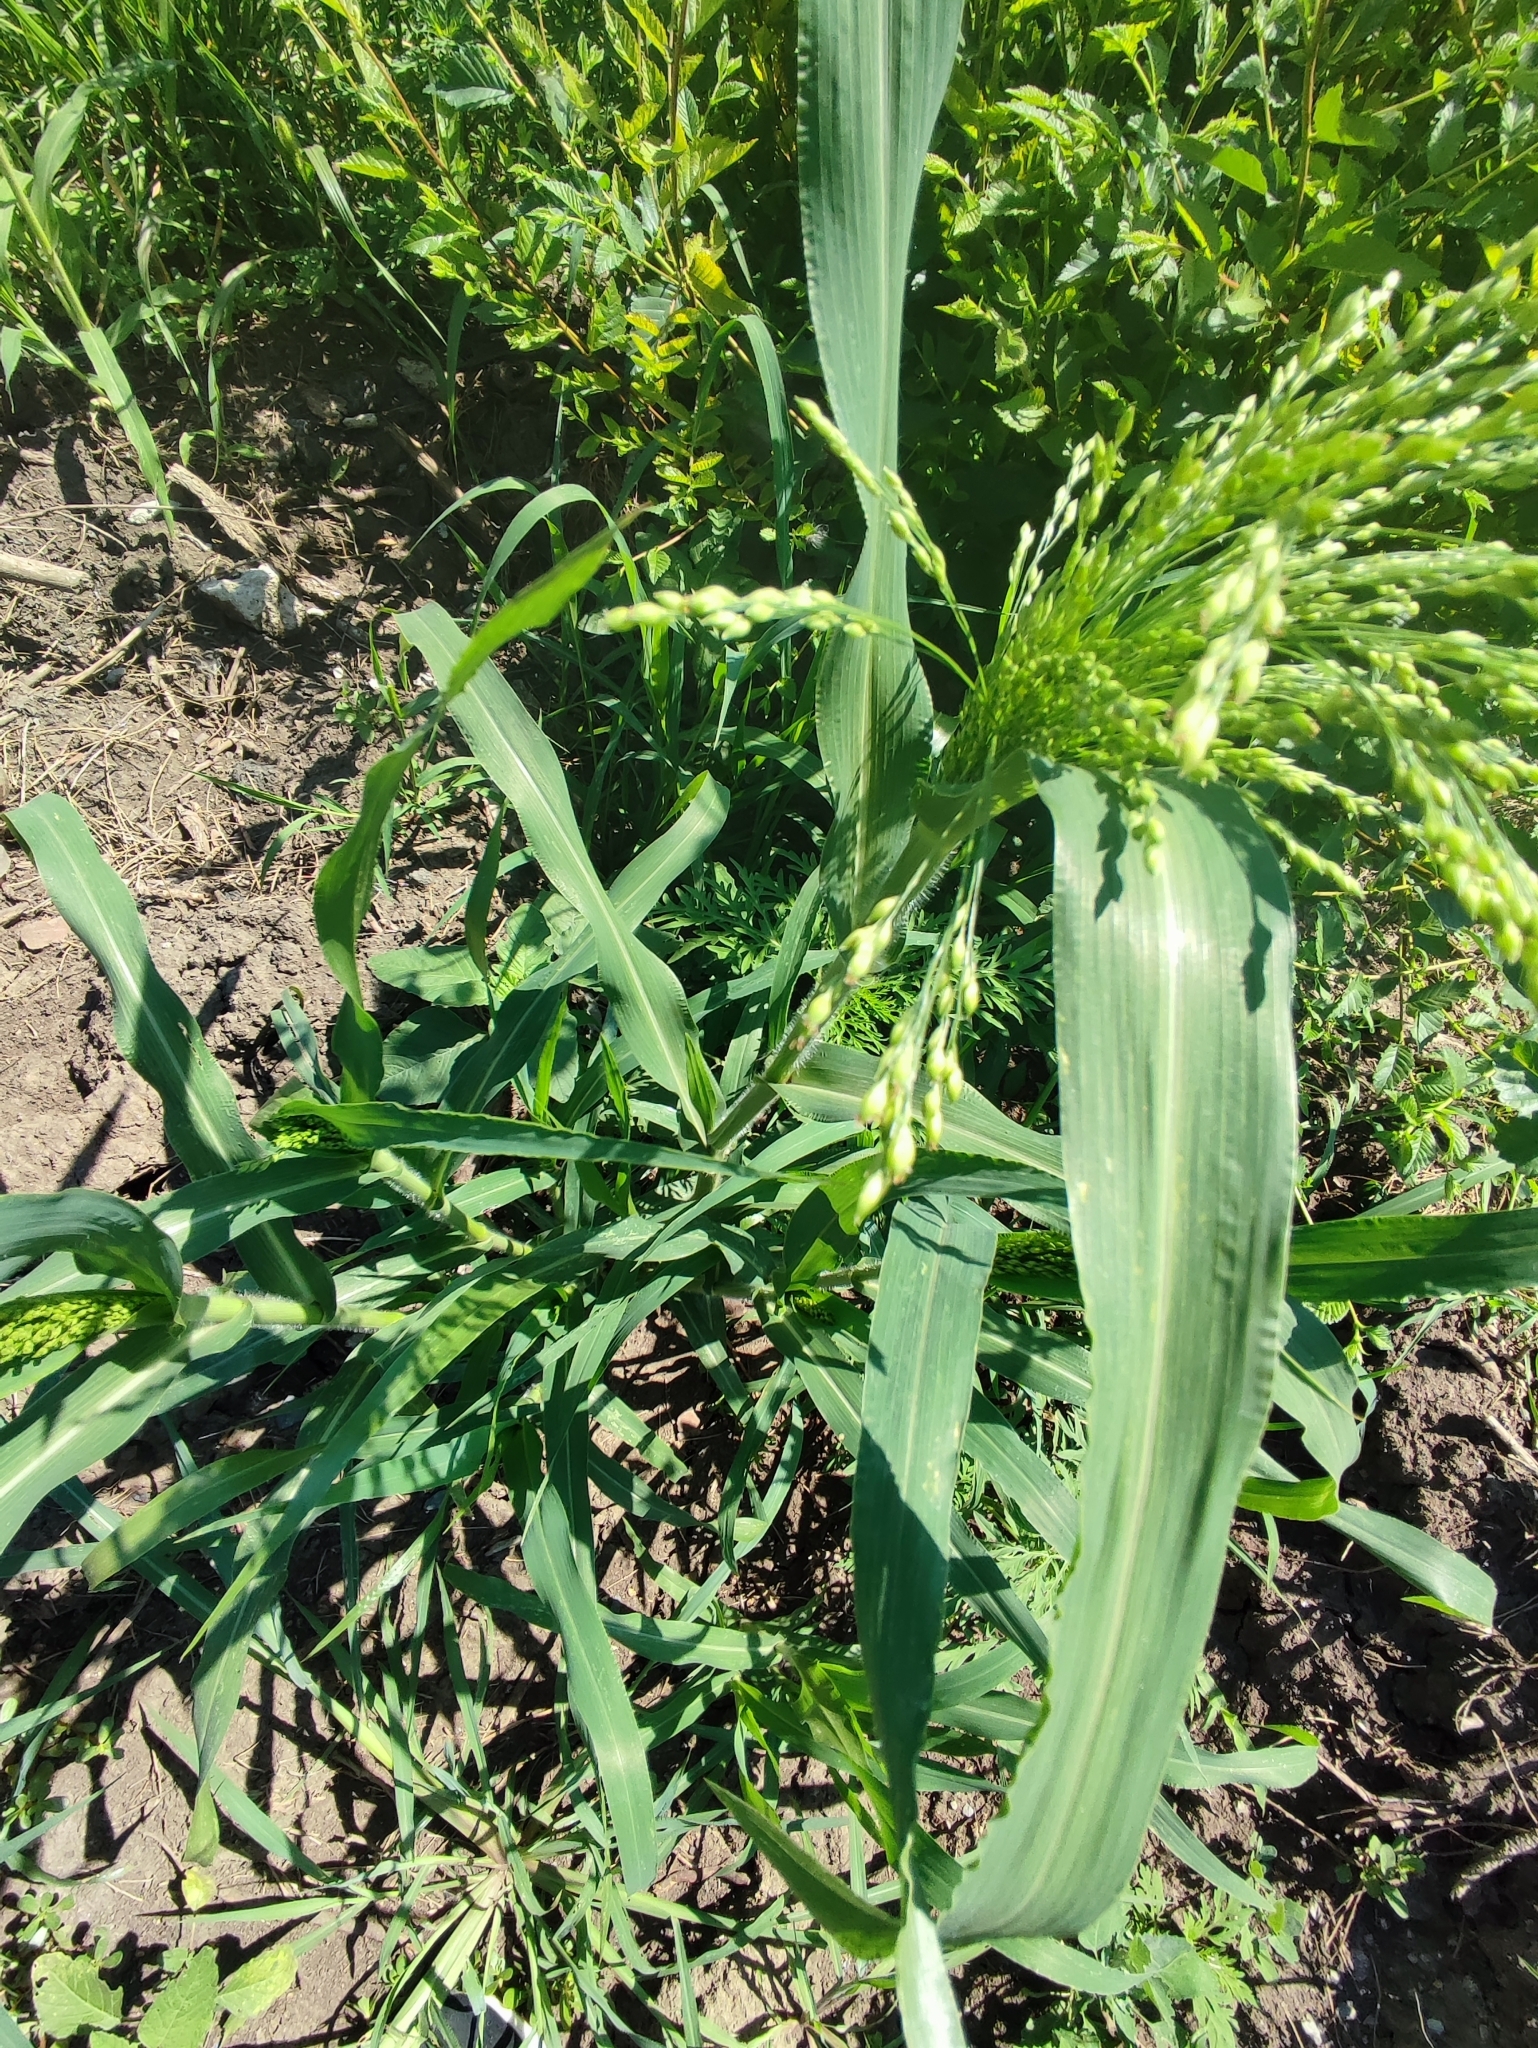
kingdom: Plantae
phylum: Tracheophyta
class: Liliopsida
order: Poales
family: Poaceae
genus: Panicum
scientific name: Panicum miliaceum
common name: Common millet
